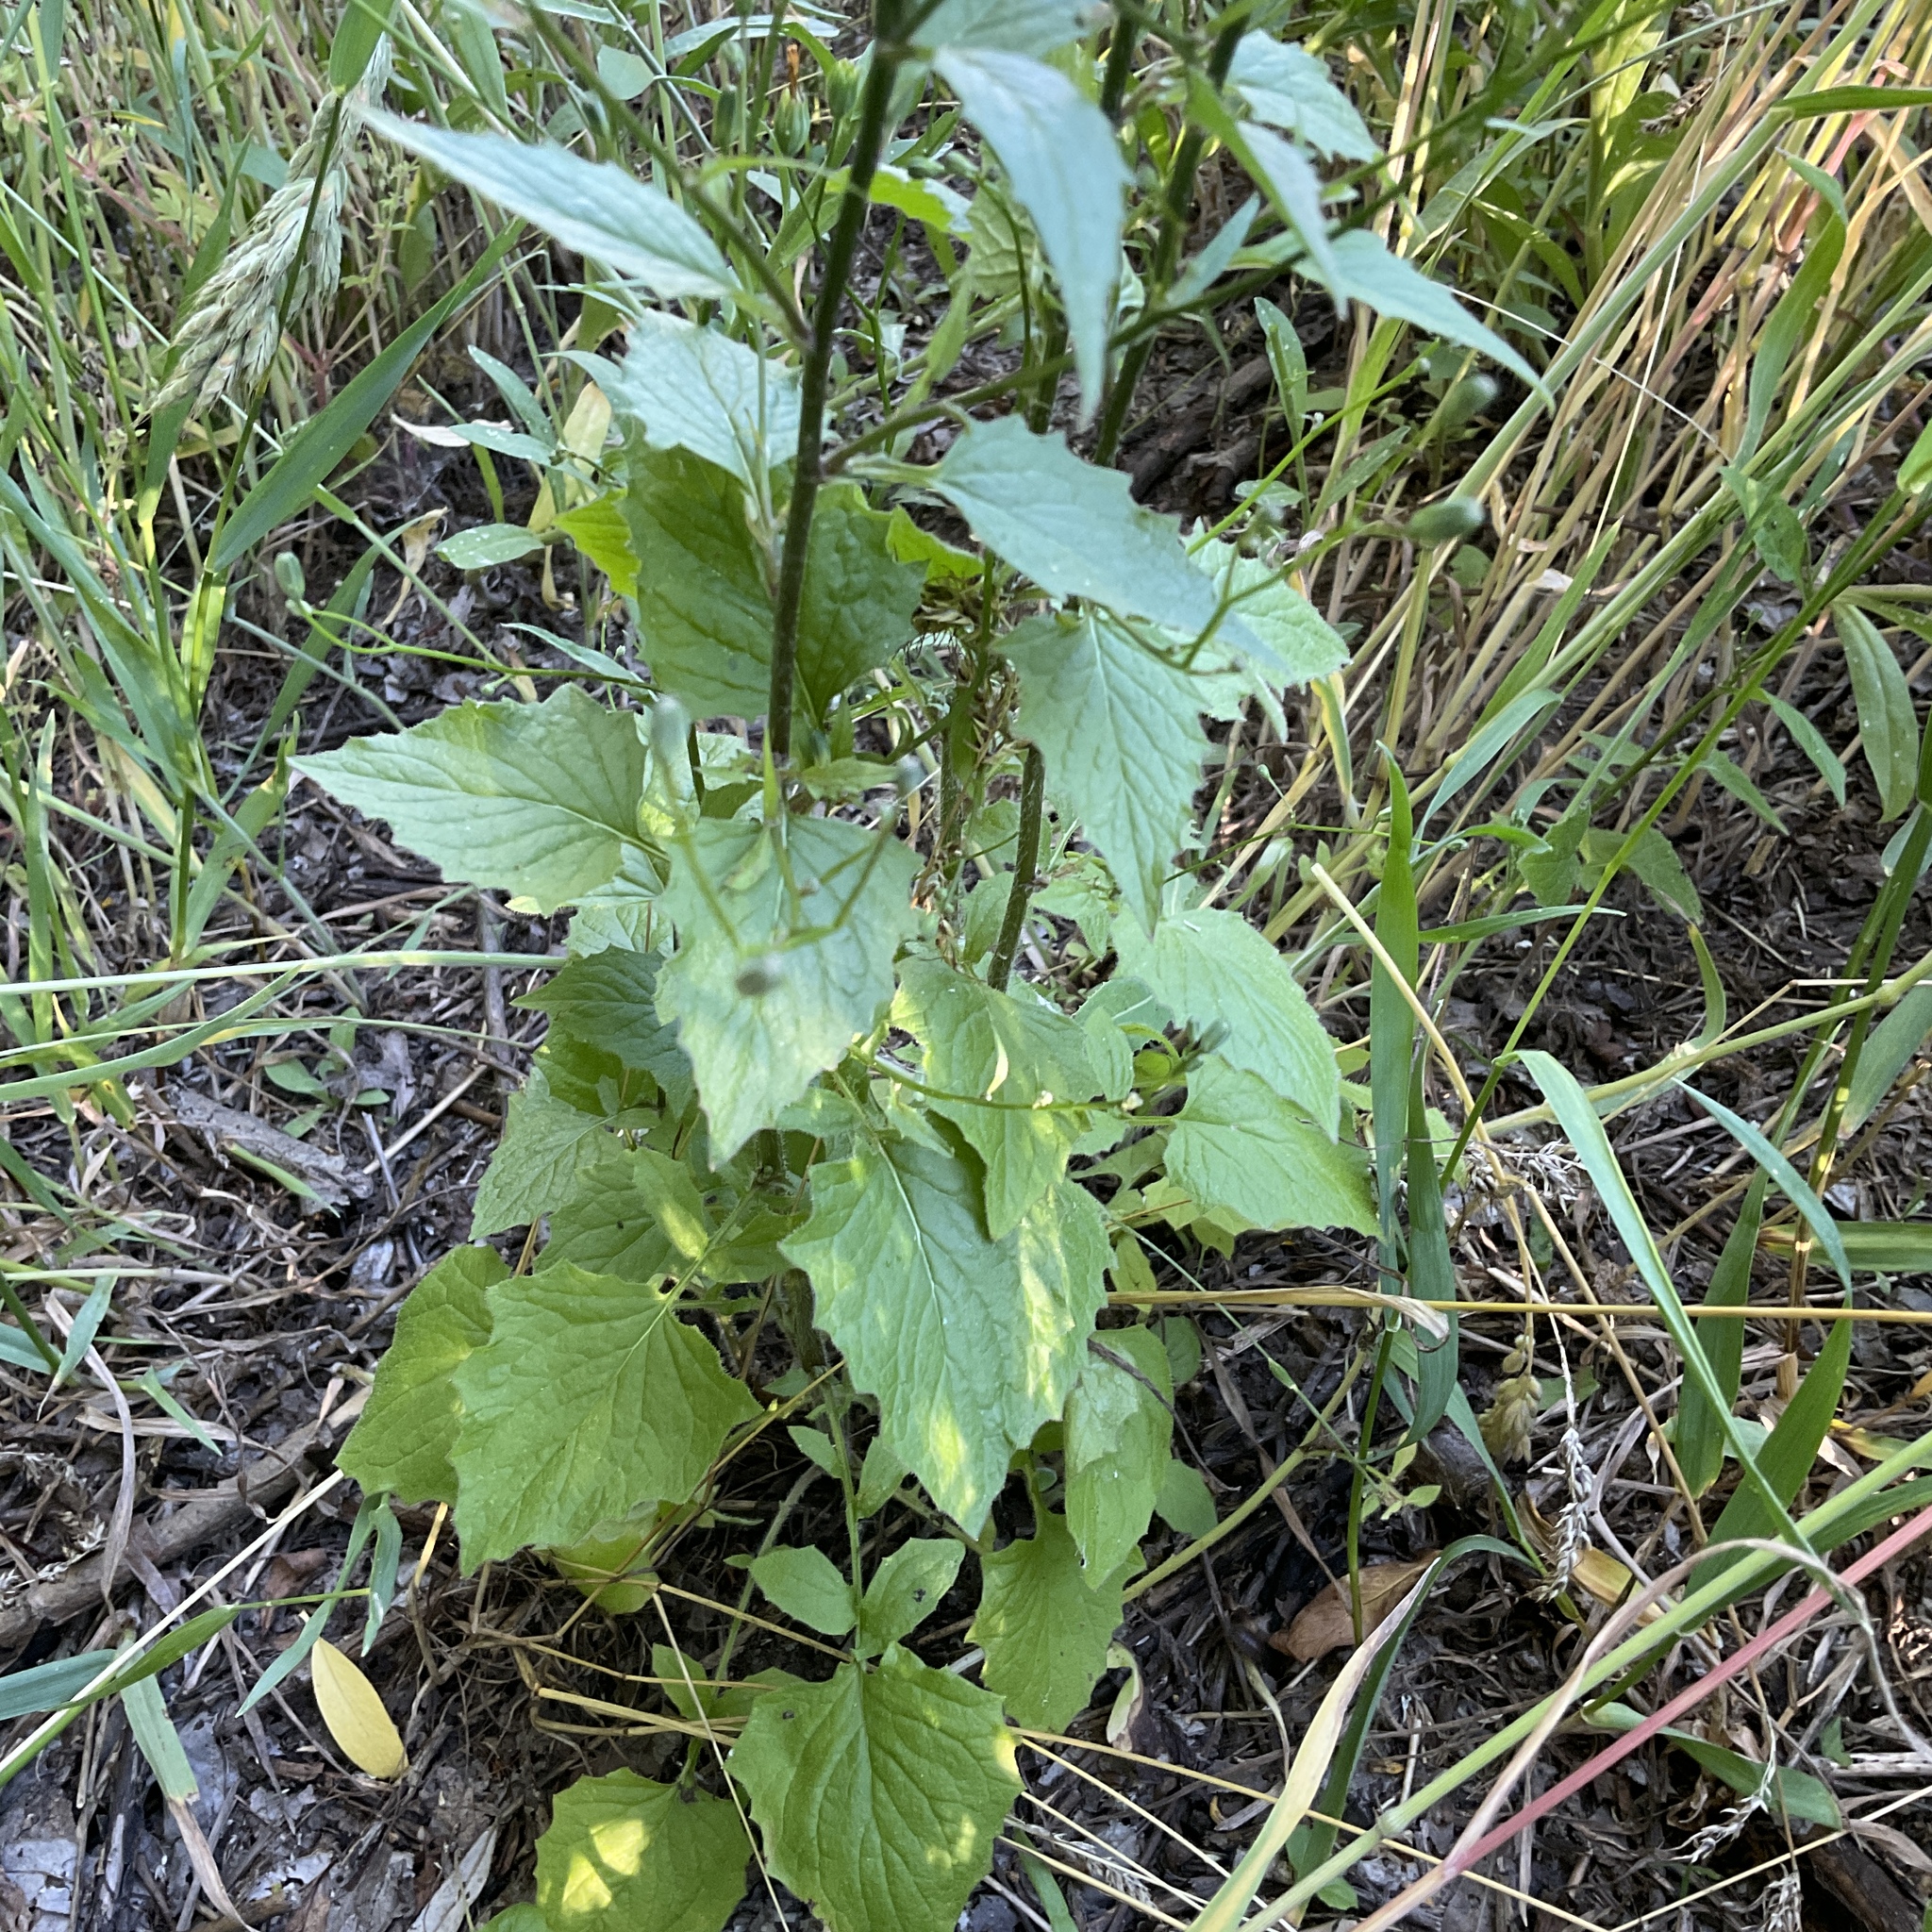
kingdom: Plantae
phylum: Tracheophyta
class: Magnoliopsida
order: Asterales
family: Asteraceae
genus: Lapsana
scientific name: Lapsana communis
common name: Nipplewort
